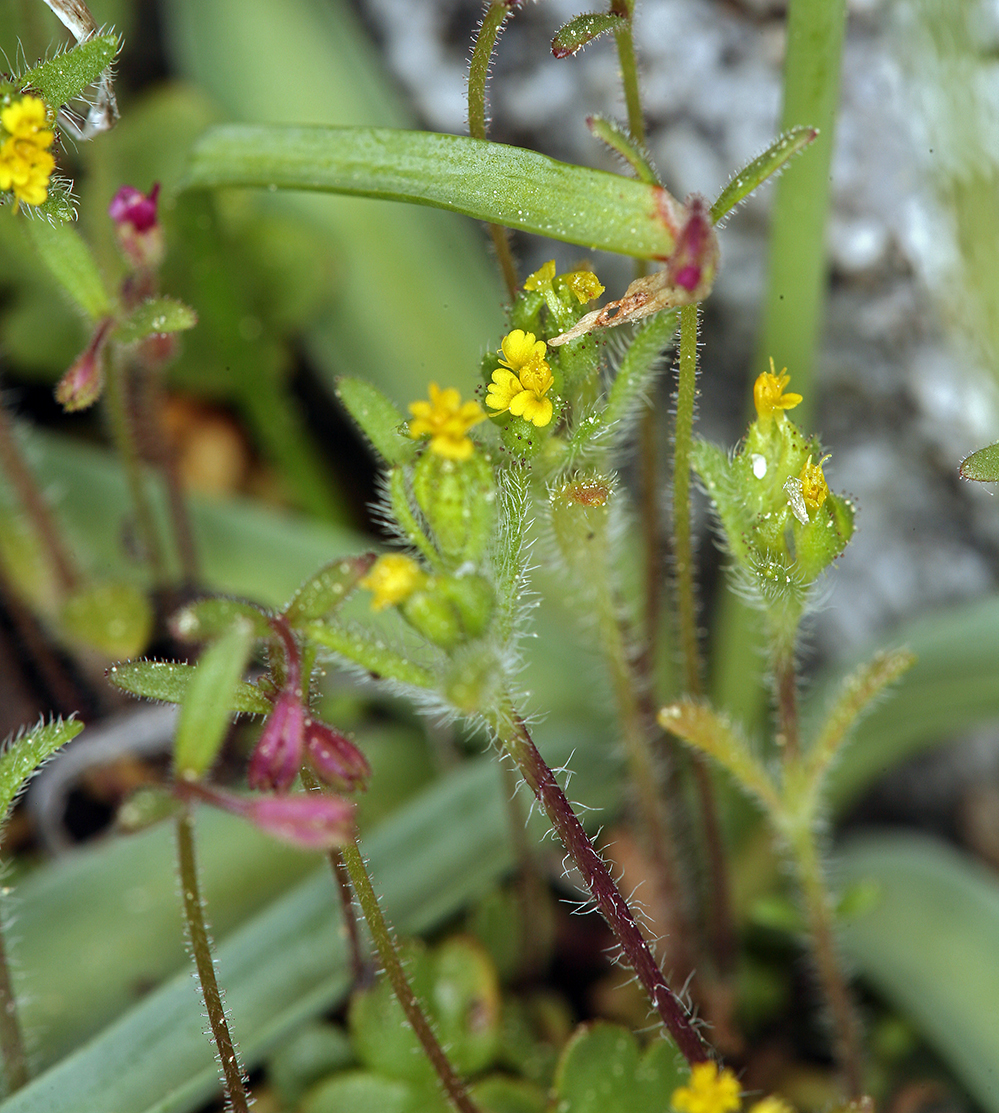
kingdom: Plantae
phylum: Tracheophyta
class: Magnoliopsida
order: Asterales
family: Asteraceae
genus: Hemizonella
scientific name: Hemizonella minima
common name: Opposite-leaved tarweed
